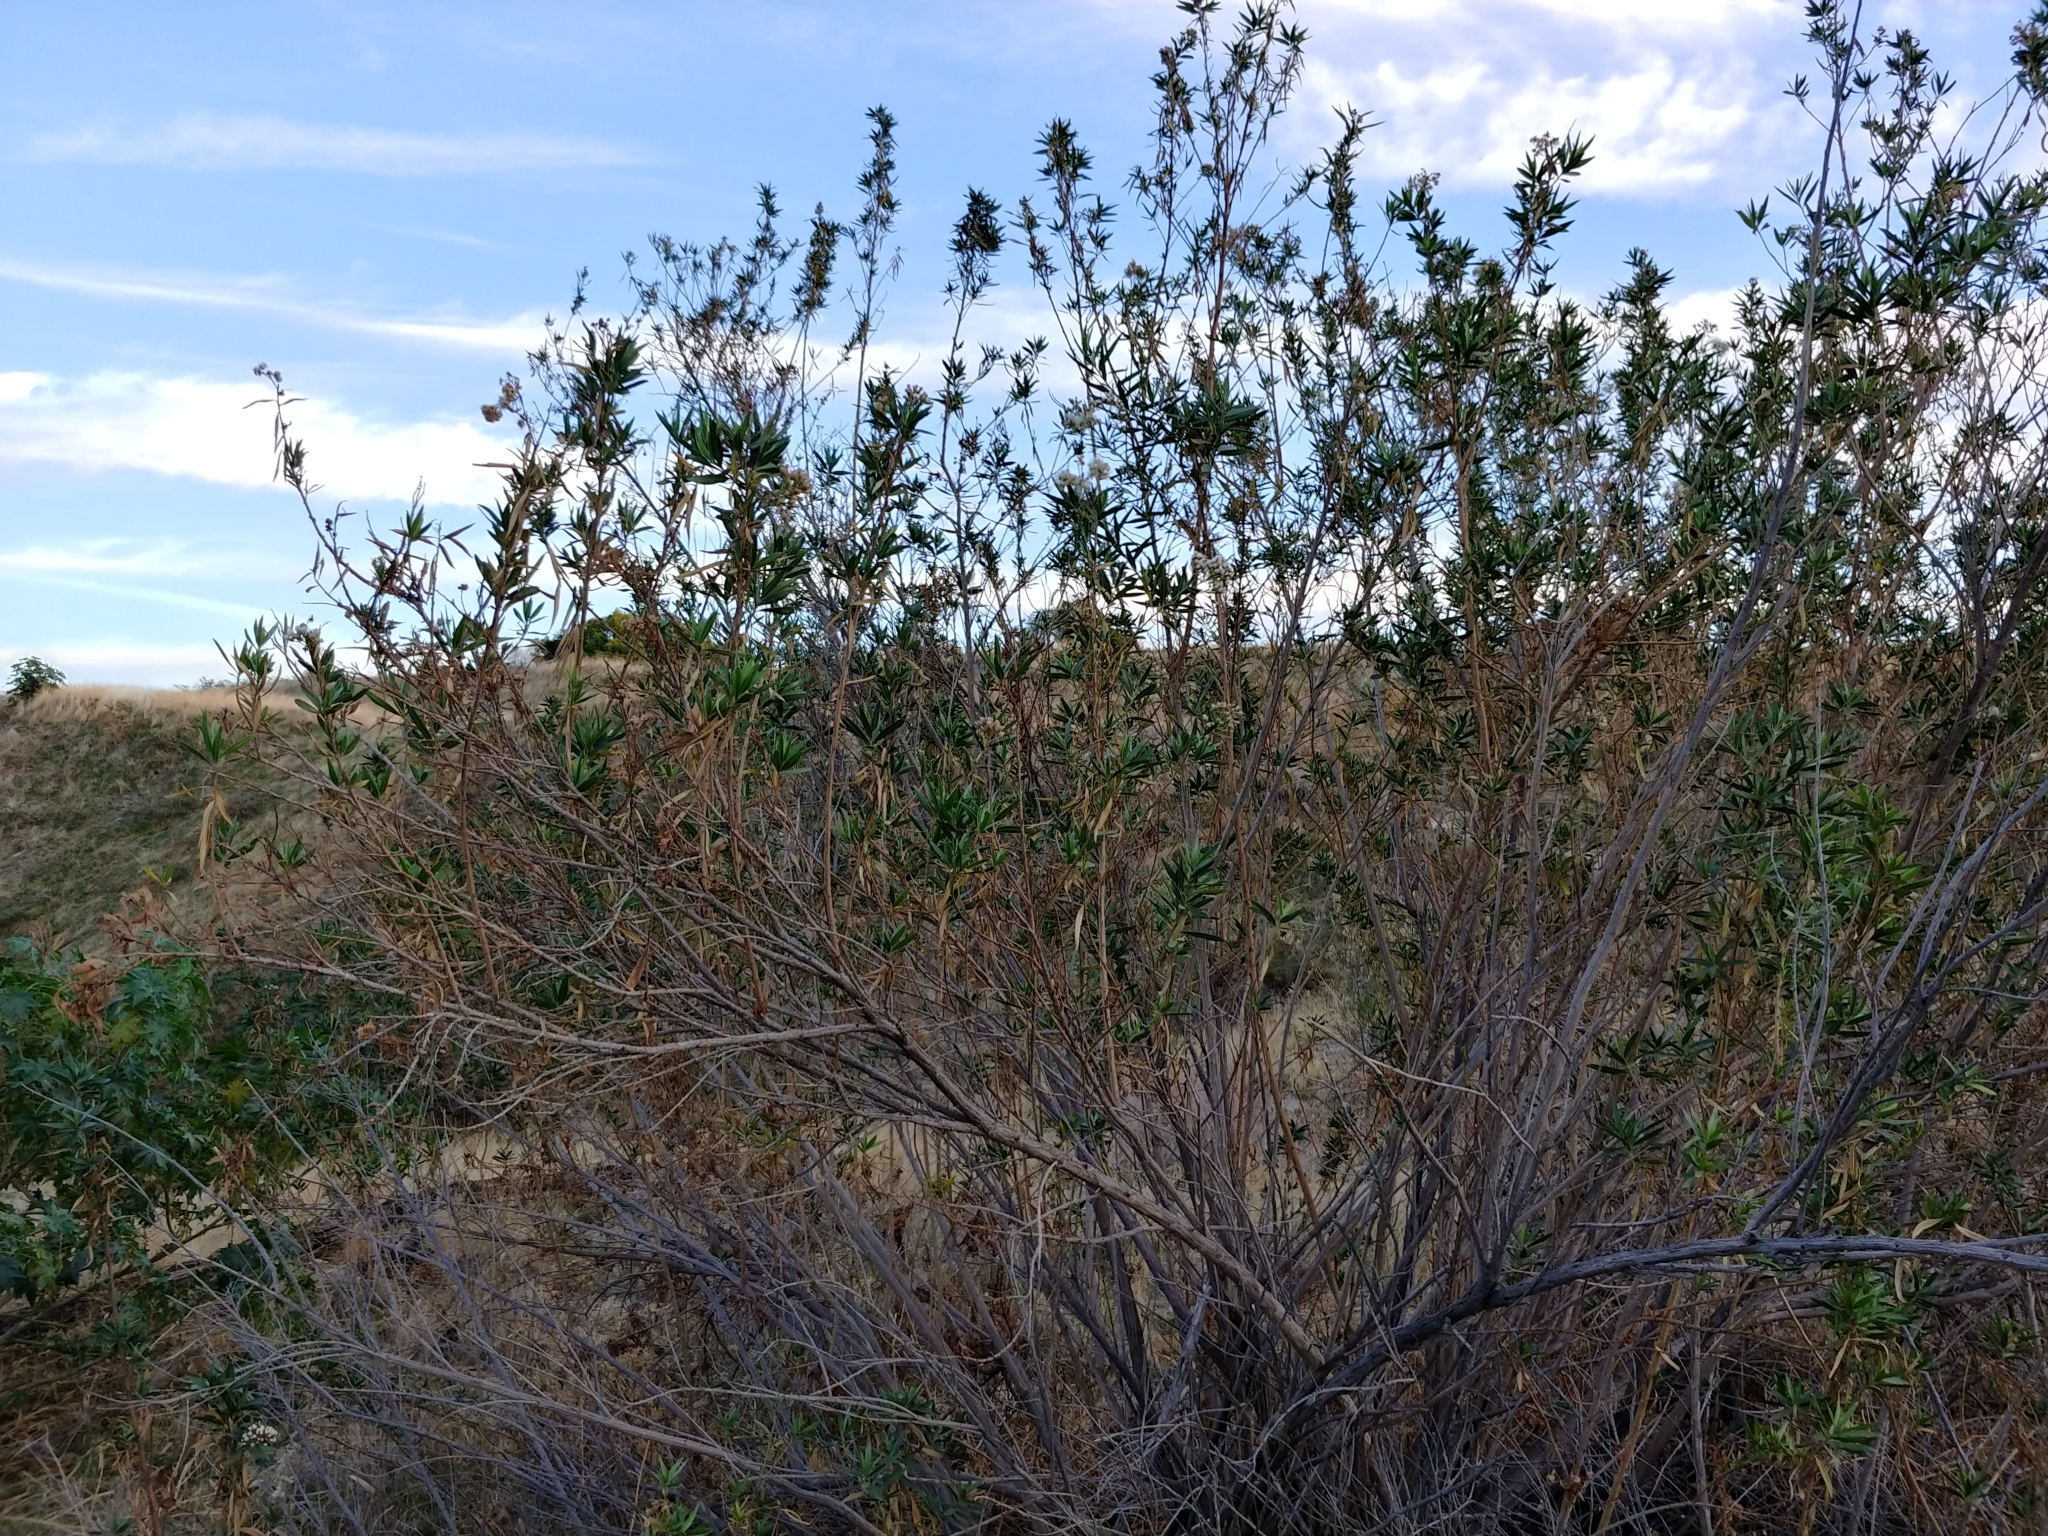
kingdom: Plantae
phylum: Tracheophyta
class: Magnoliopsida
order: Asterales
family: Asteraceae
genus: Baccharis
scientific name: Baccharis salicifolia
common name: Sticky baccharis
